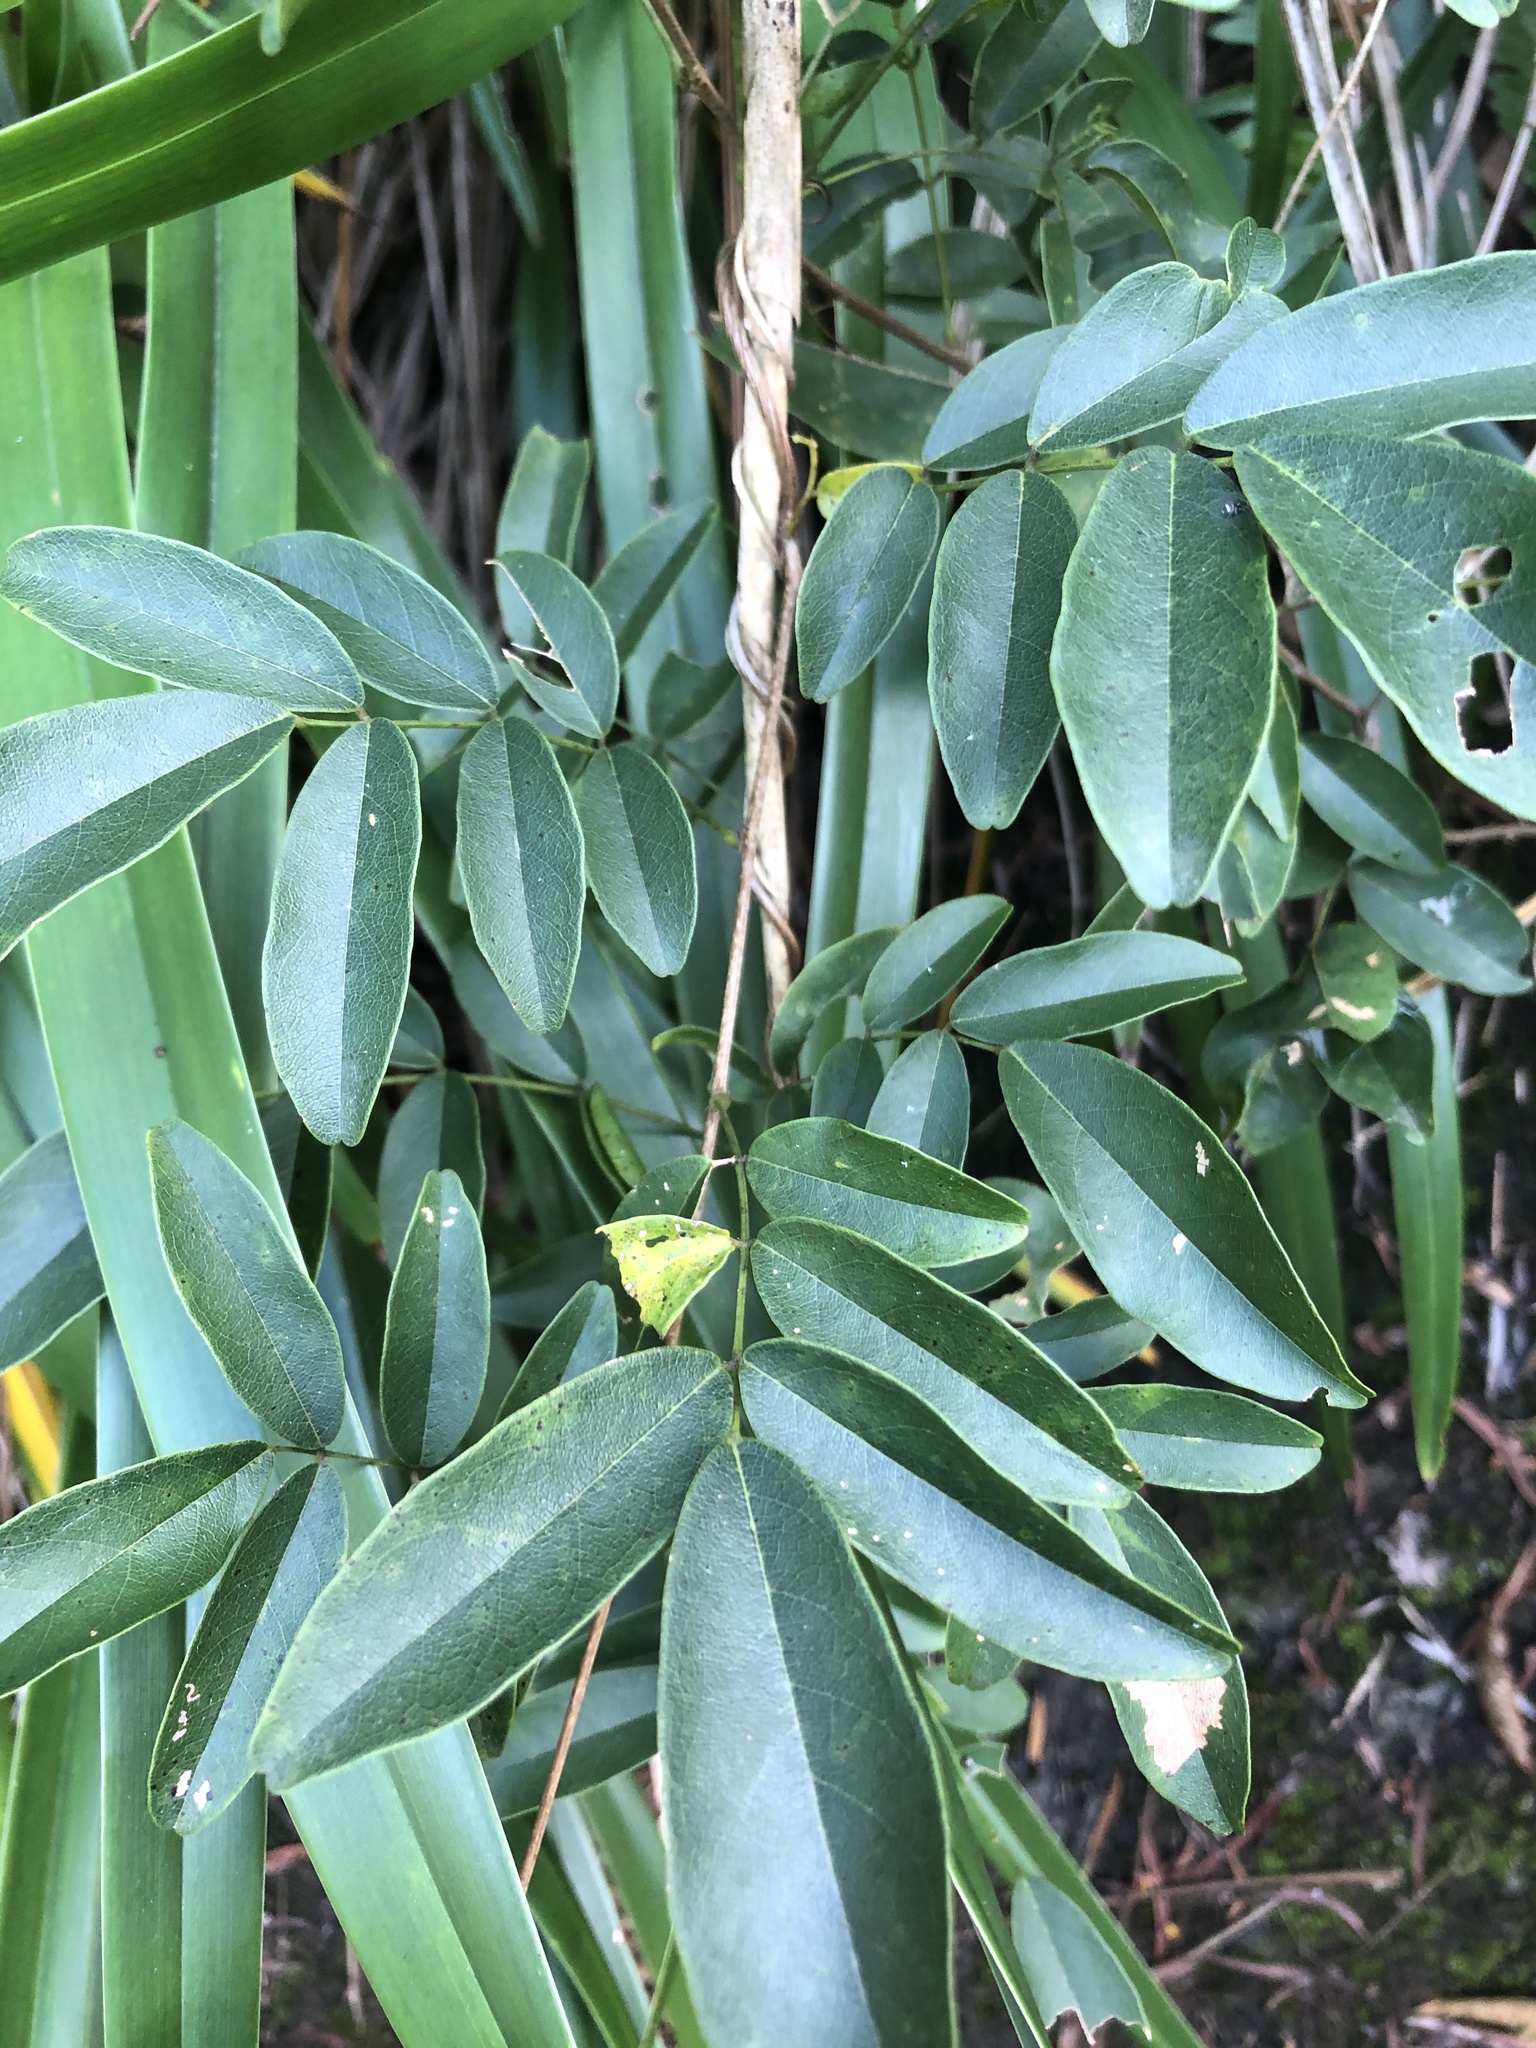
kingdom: Plantae
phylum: Tracheophyta
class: Magnoliopsida
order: Fabales
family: Fabaceae
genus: Wisteriopsis
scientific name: Wisteriopsis reticulata
